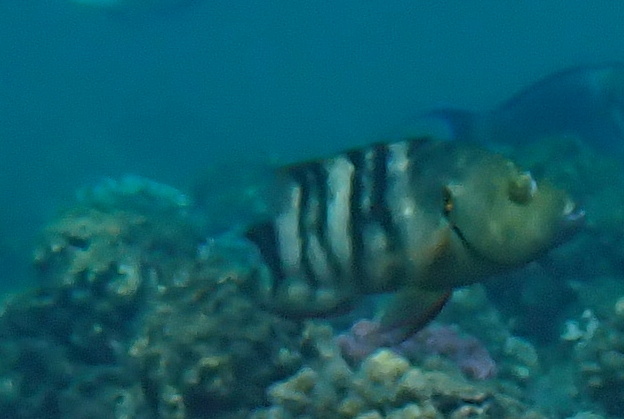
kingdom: Animalia
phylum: Chordata
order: Perciformes
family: Labridae
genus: Cheilinus
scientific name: Cheilinus lunulatus
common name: Broomtail wrasse
